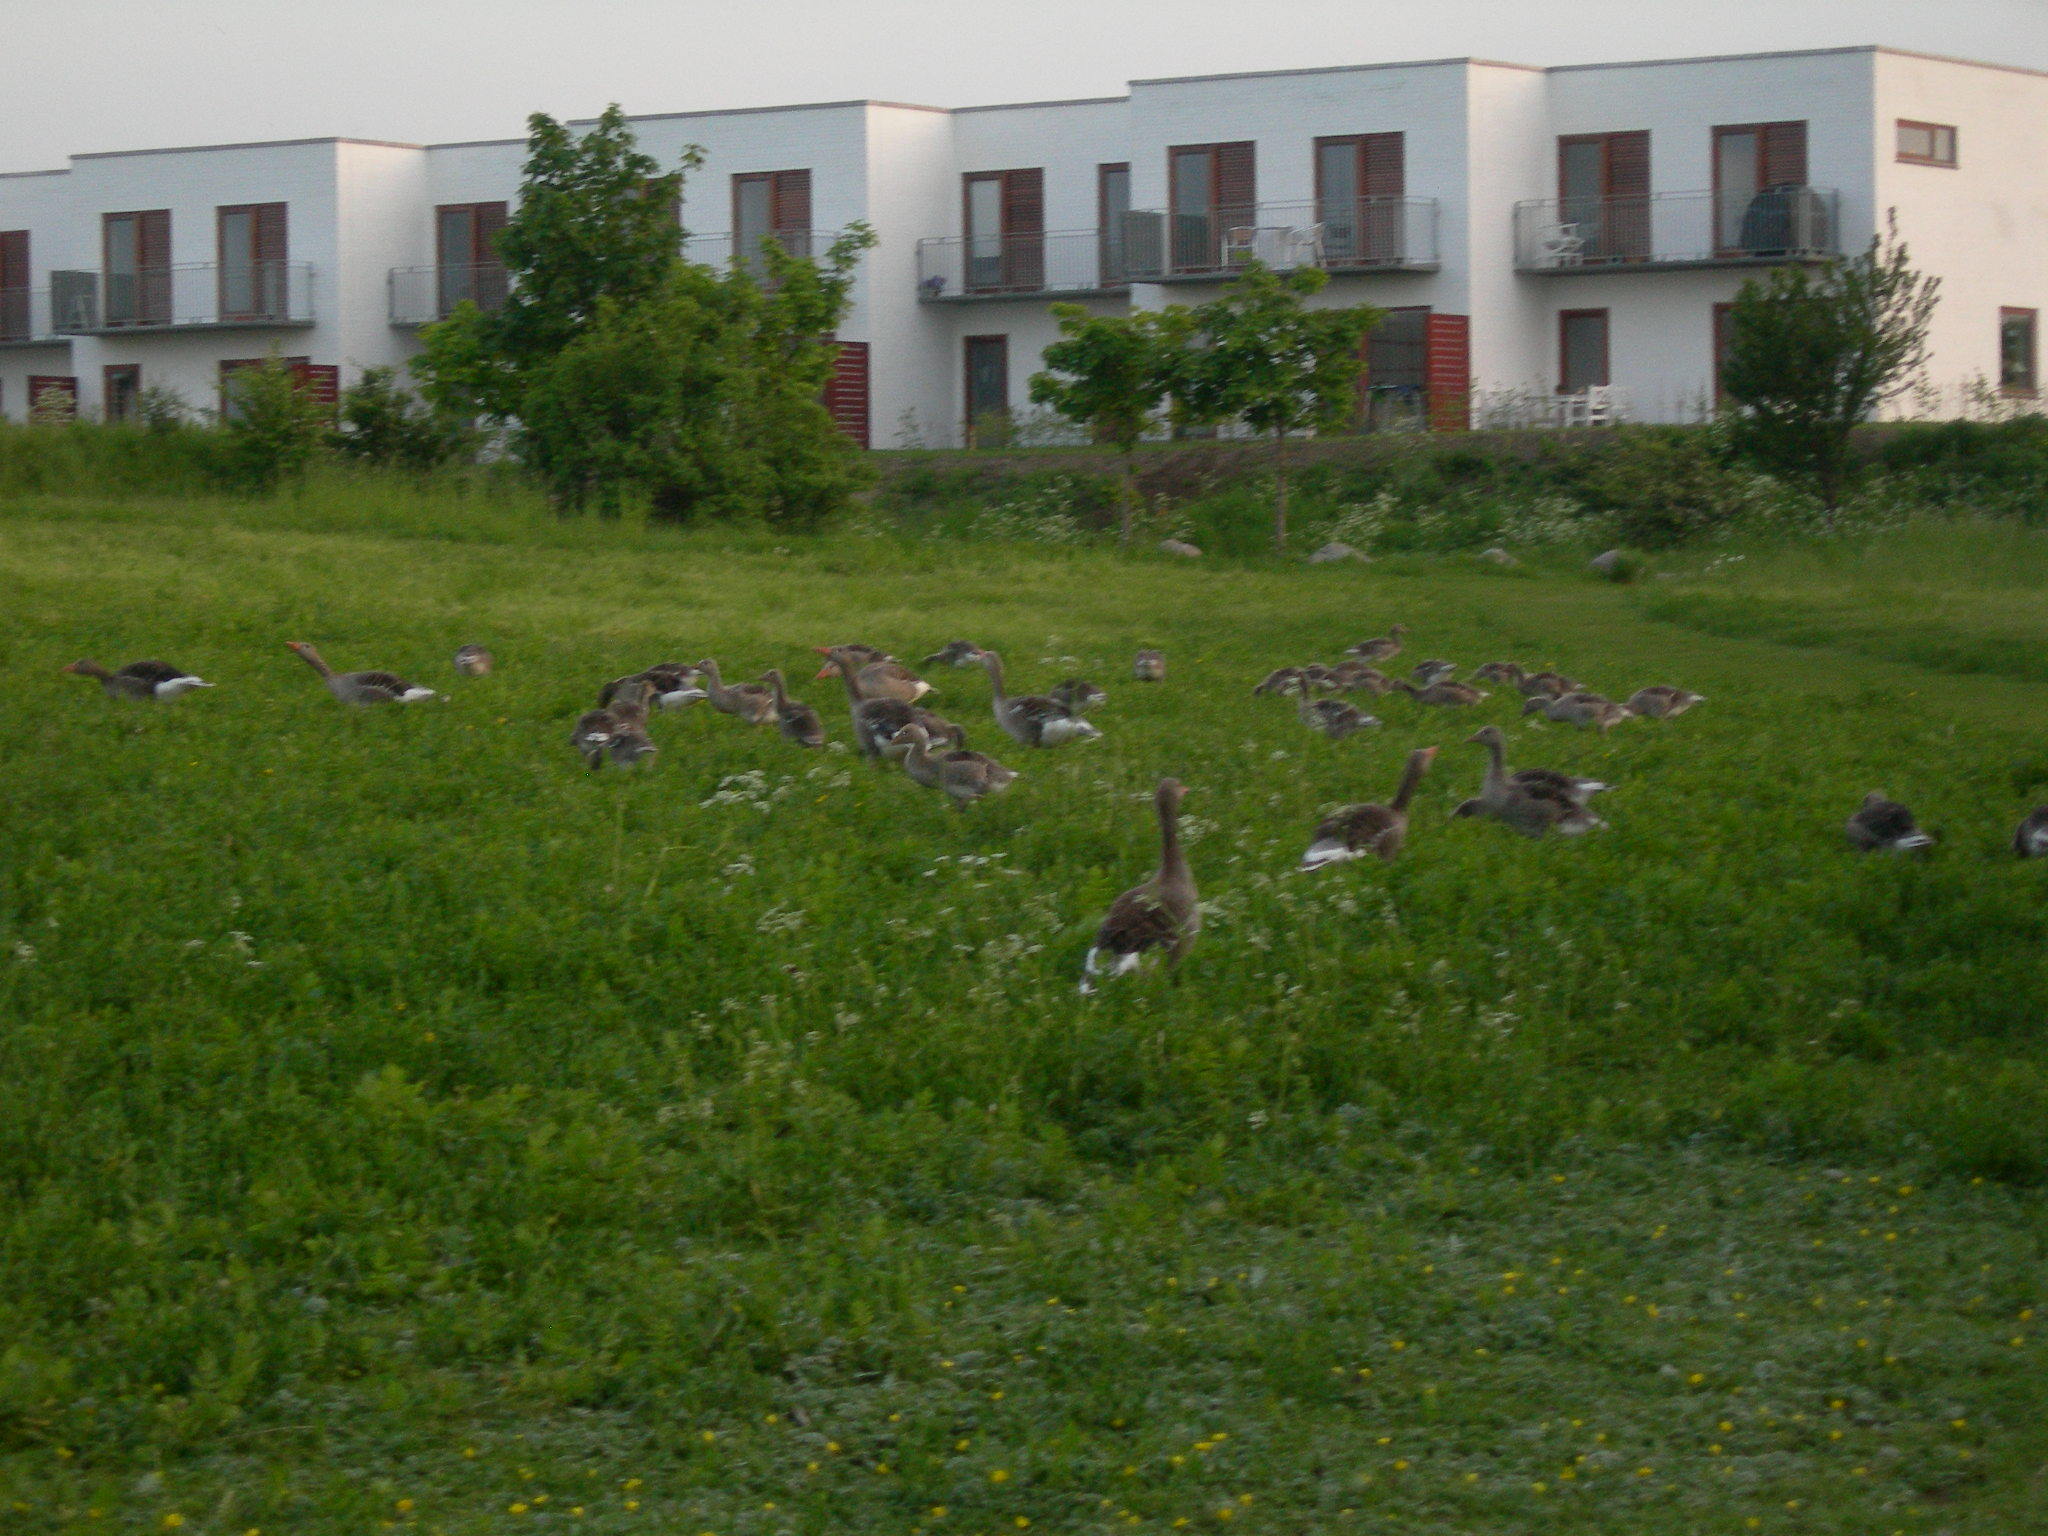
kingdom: Animalia
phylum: Chordata
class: Aves
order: Anseriformes
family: Anatidae
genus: Anser
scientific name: Anser anser
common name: Greylag goose
